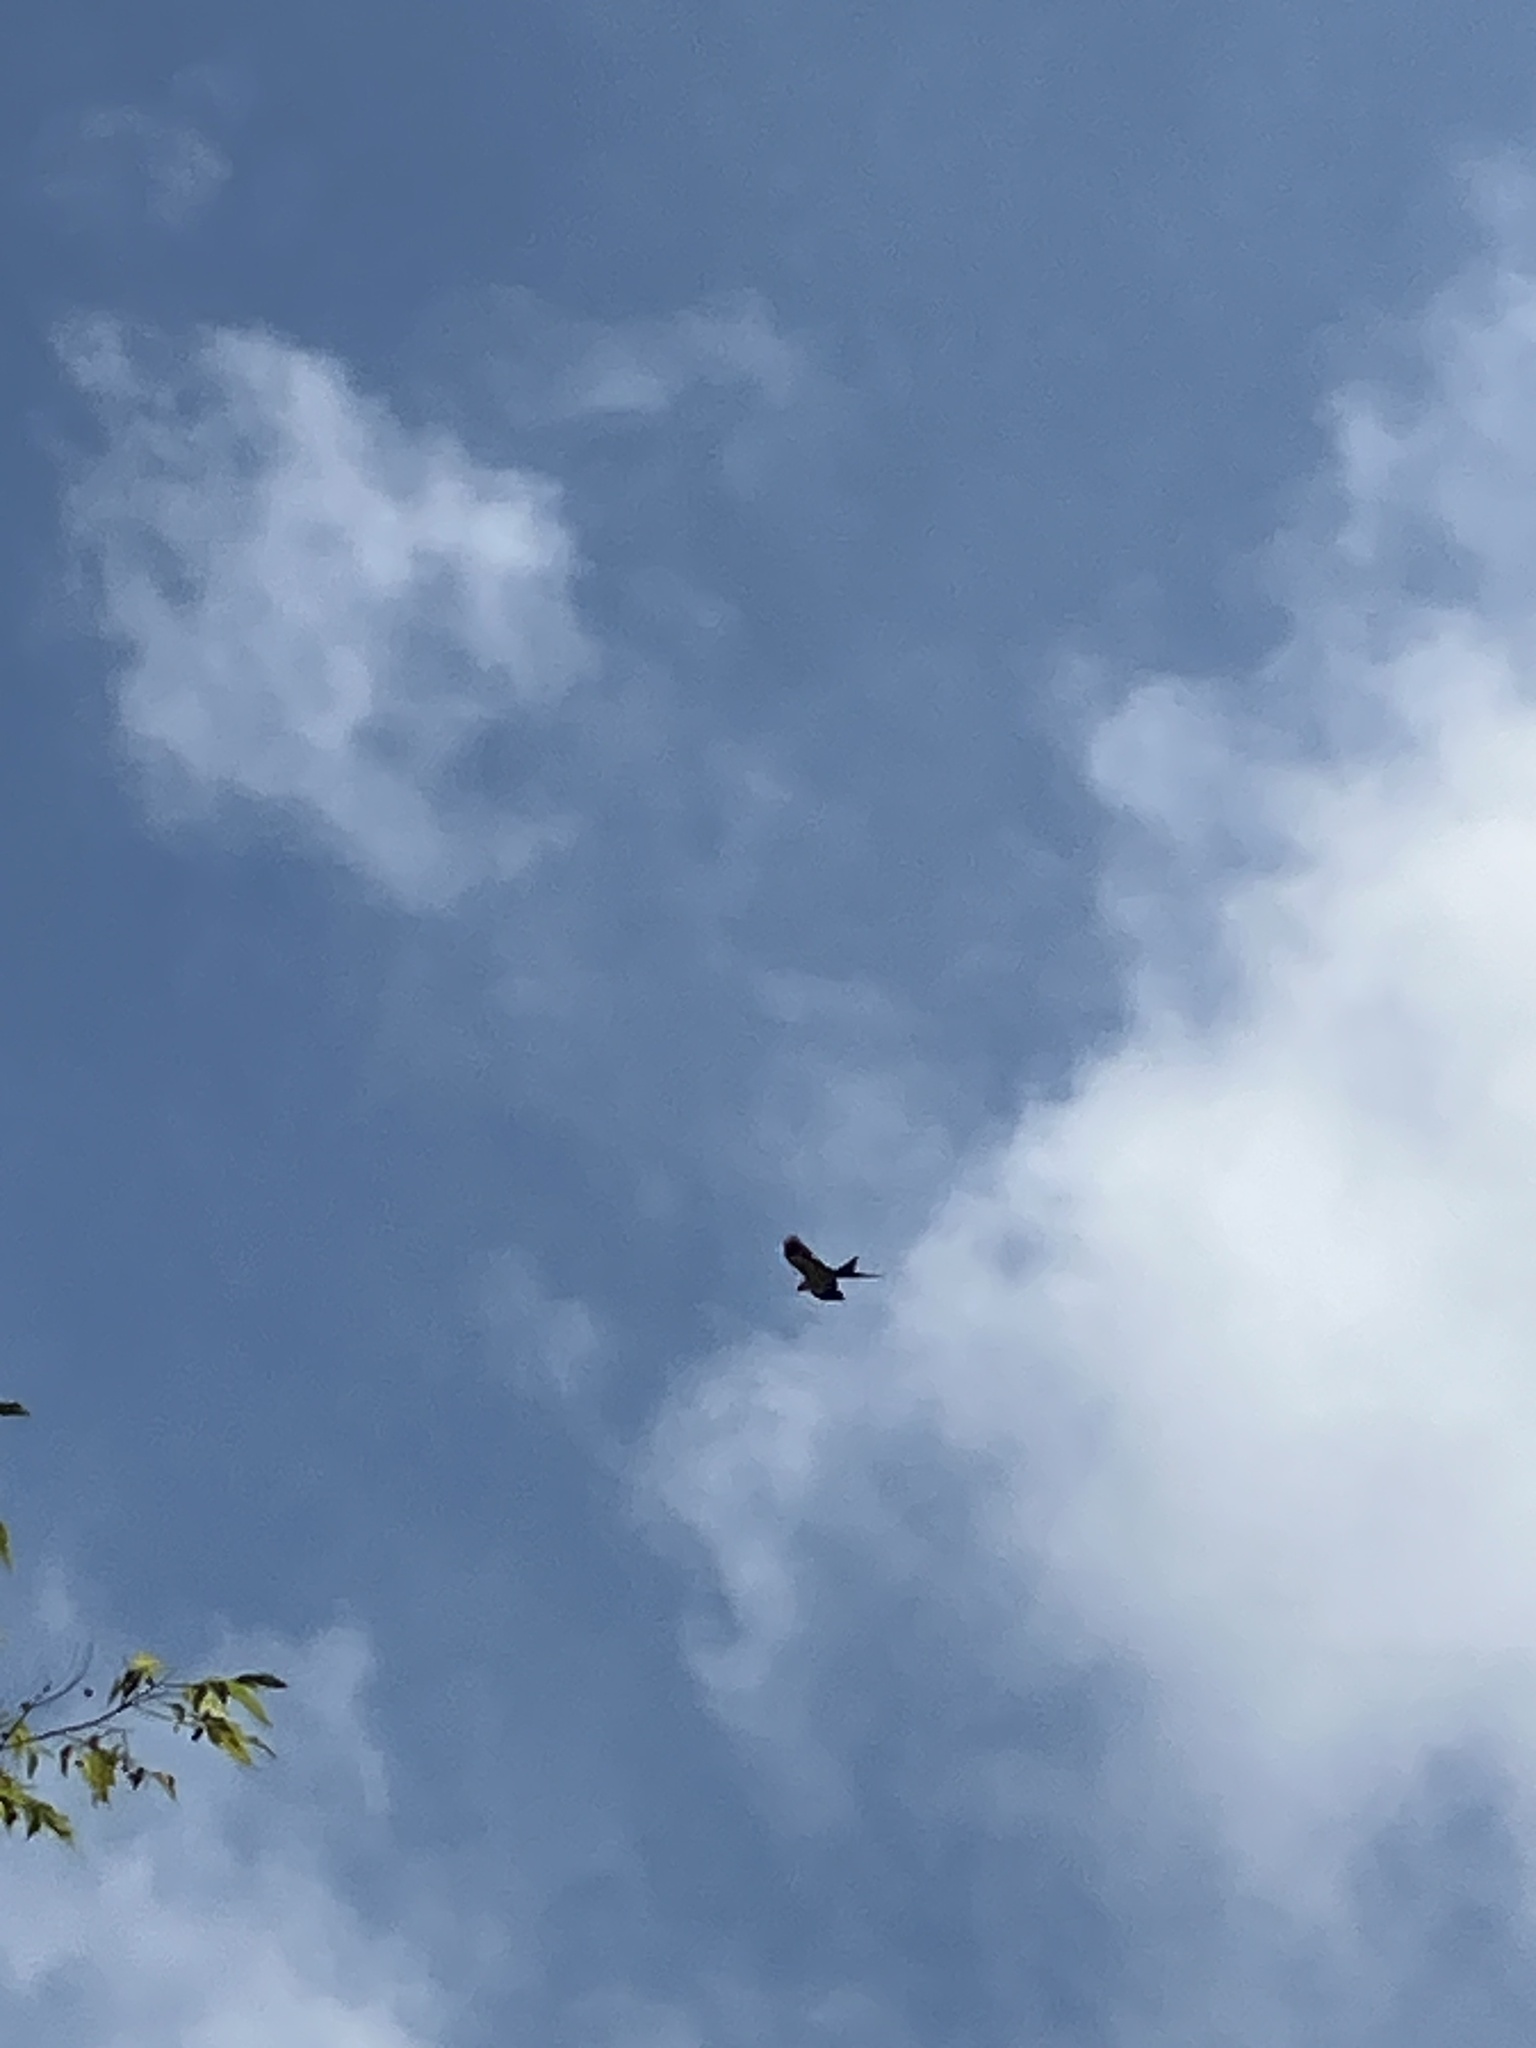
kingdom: Animalia
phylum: Chordata
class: Aves
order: Accipitriformes
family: Accipitridae
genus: Elanoides
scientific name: Elanoides forficatus
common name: Swallow-tailed kite
